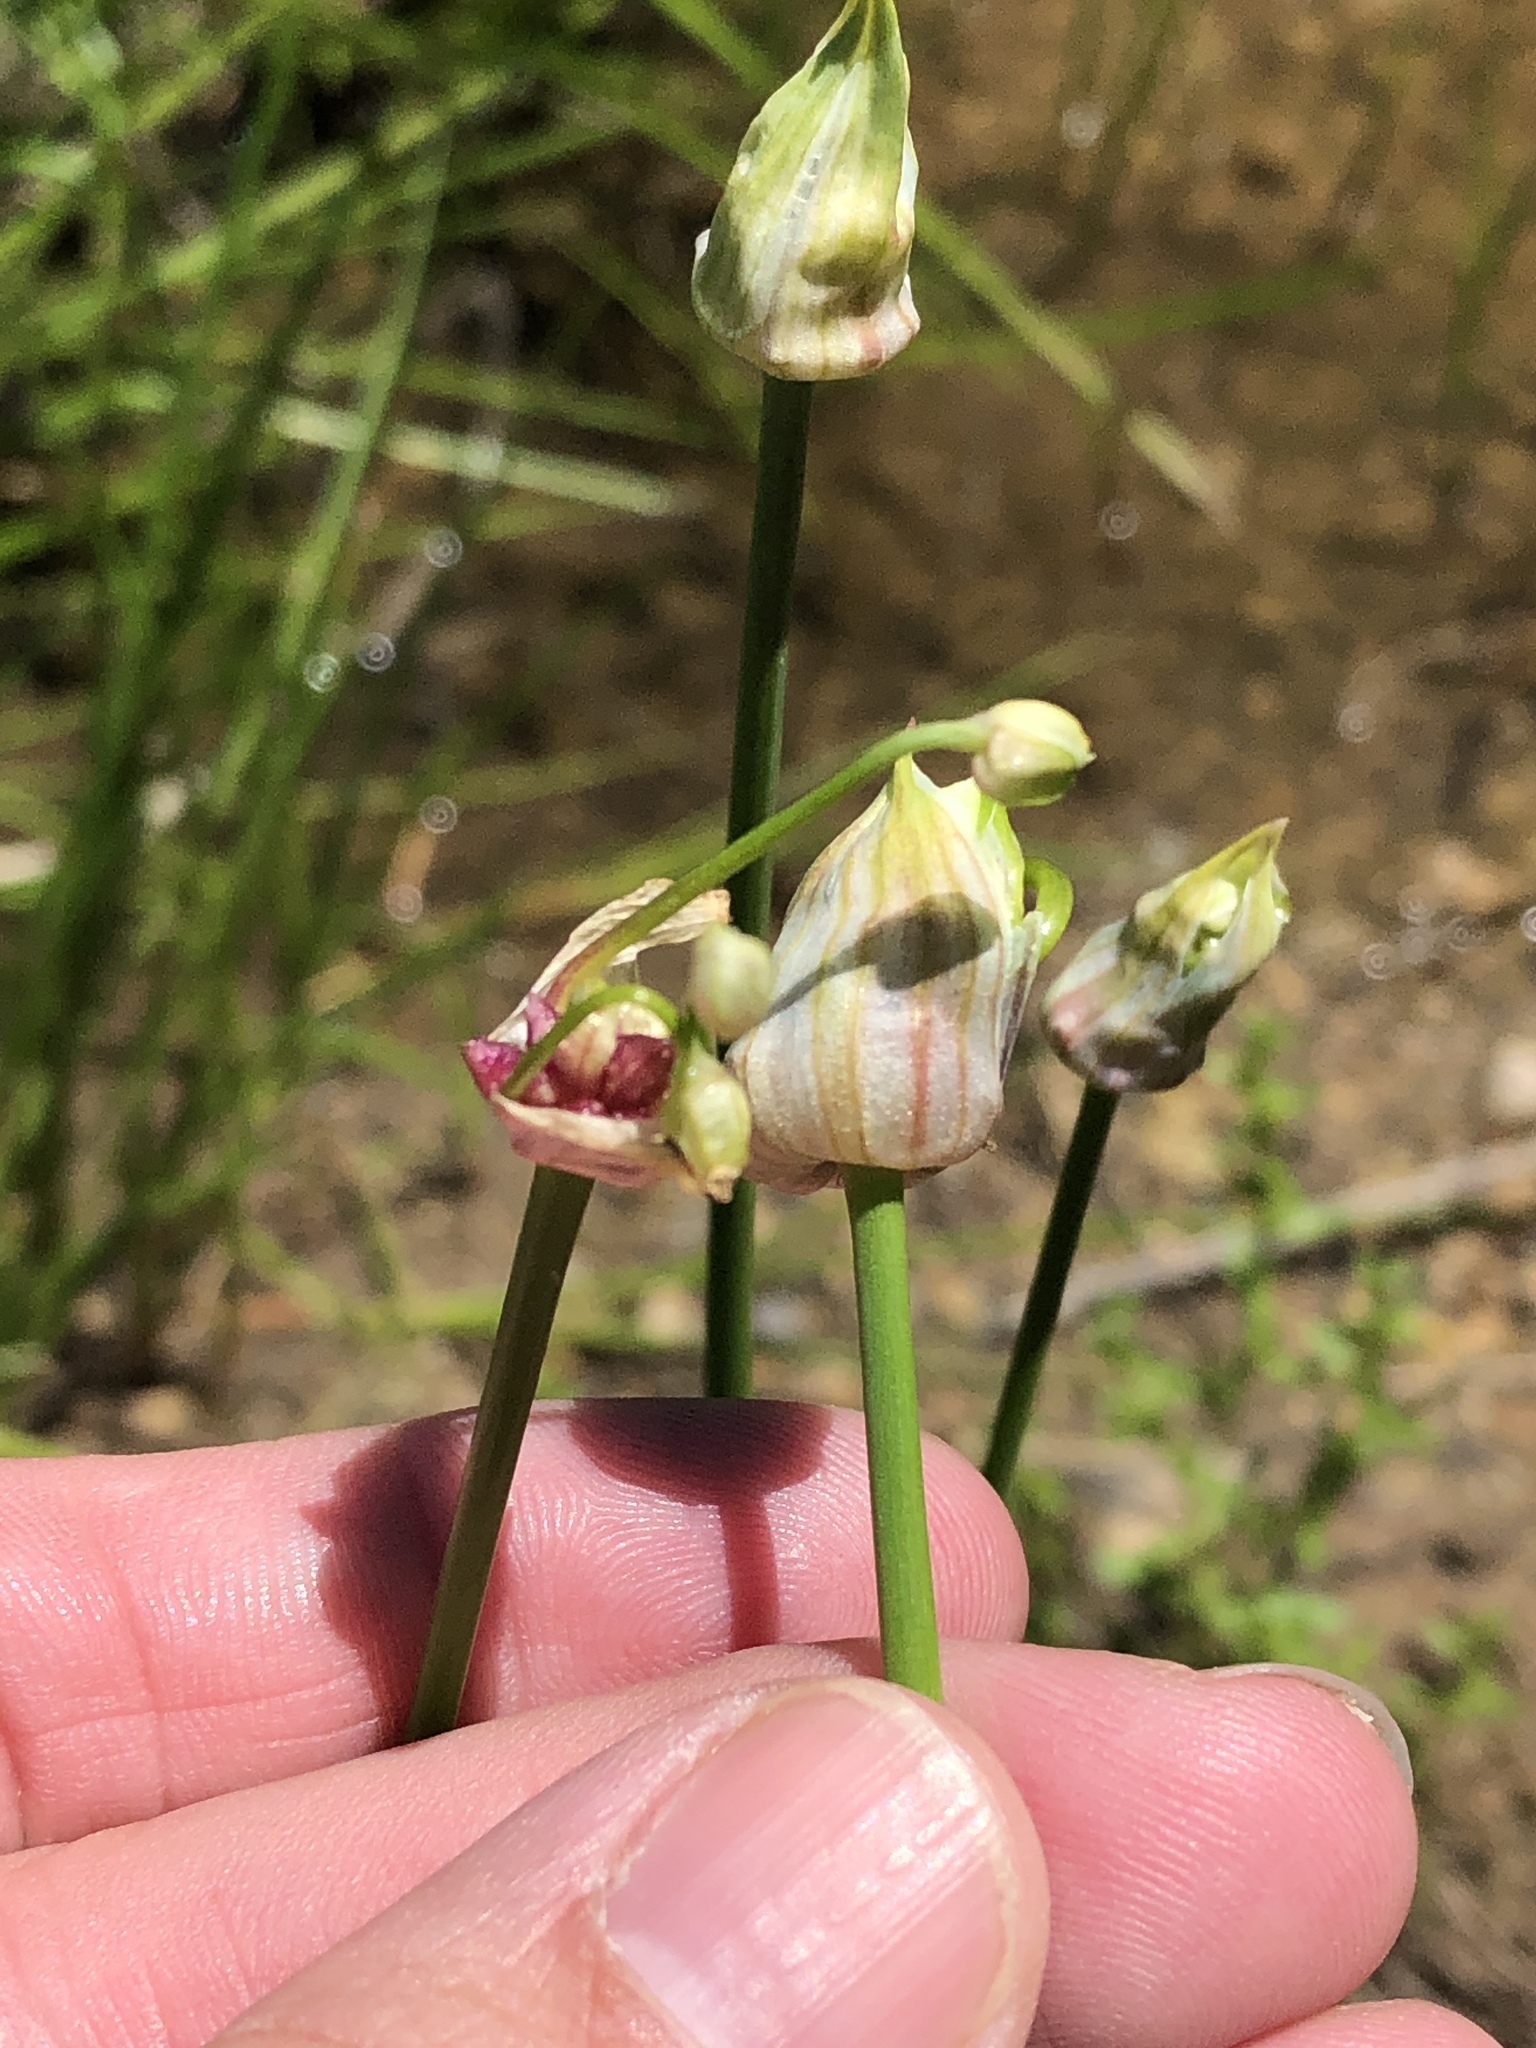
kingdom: Plantae
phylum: Tracheophyta
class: Liliopsida
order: Asparagales
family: Amaryllidaceae
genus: Allium
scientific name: Allium canadense
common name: Meadow garlic
